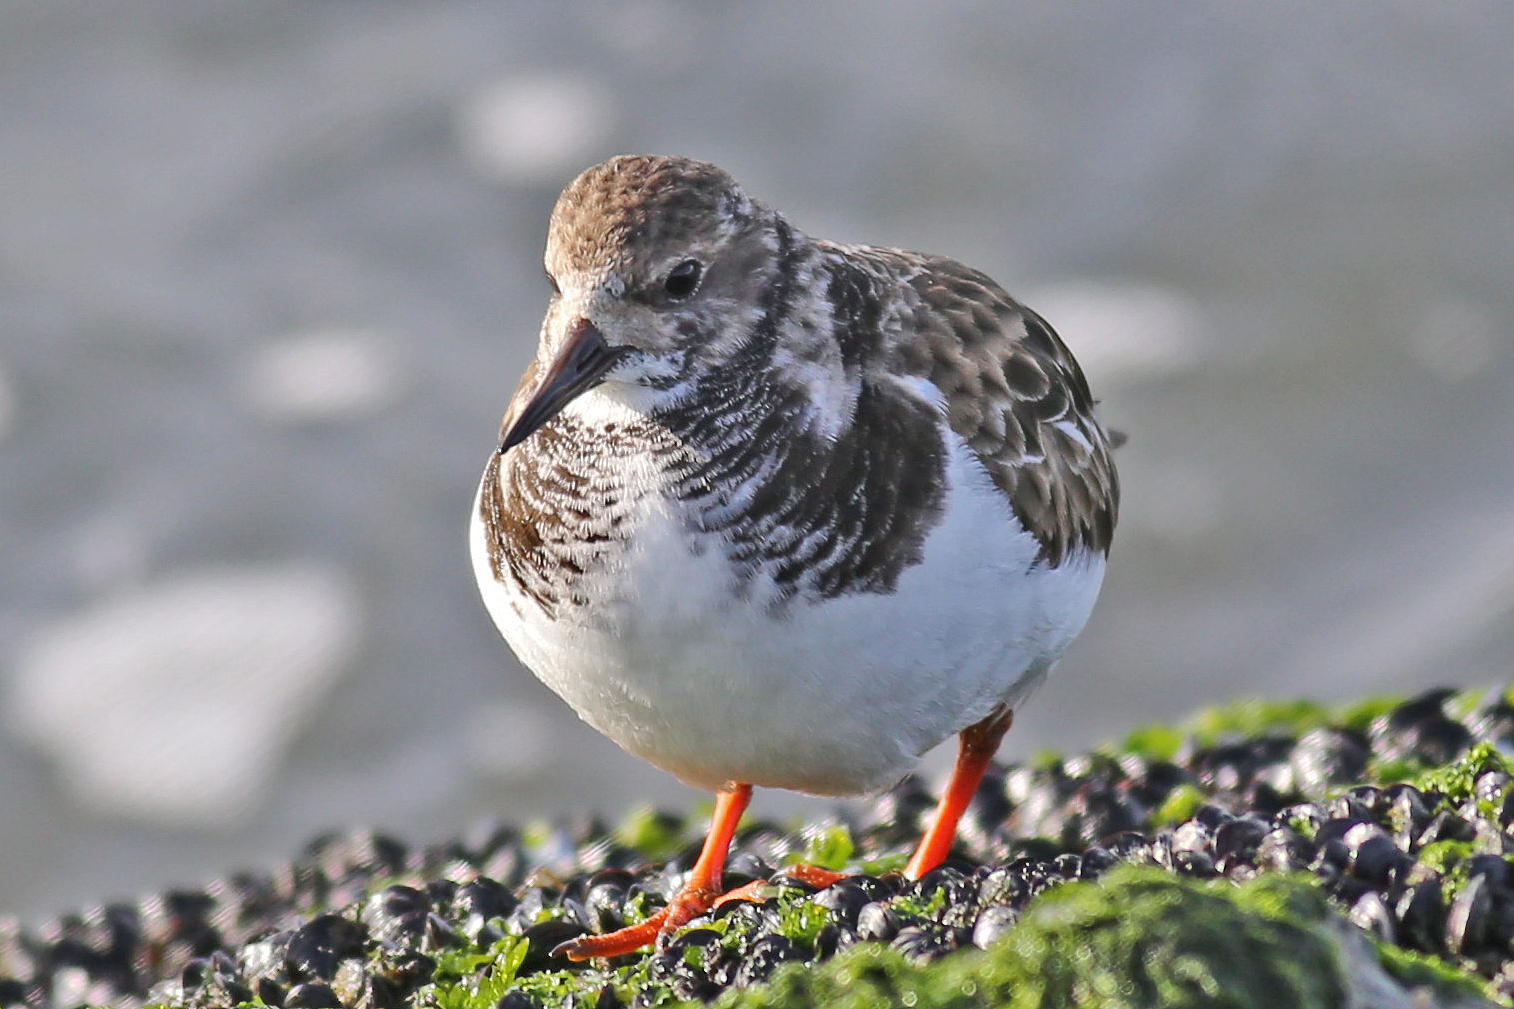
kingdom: Animalia
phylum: Chordata
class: Aves
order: Charadriiformes
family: Scolopacidae
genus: Arenaria
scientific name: Arenaria interpres
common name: Ruddy turnstone
